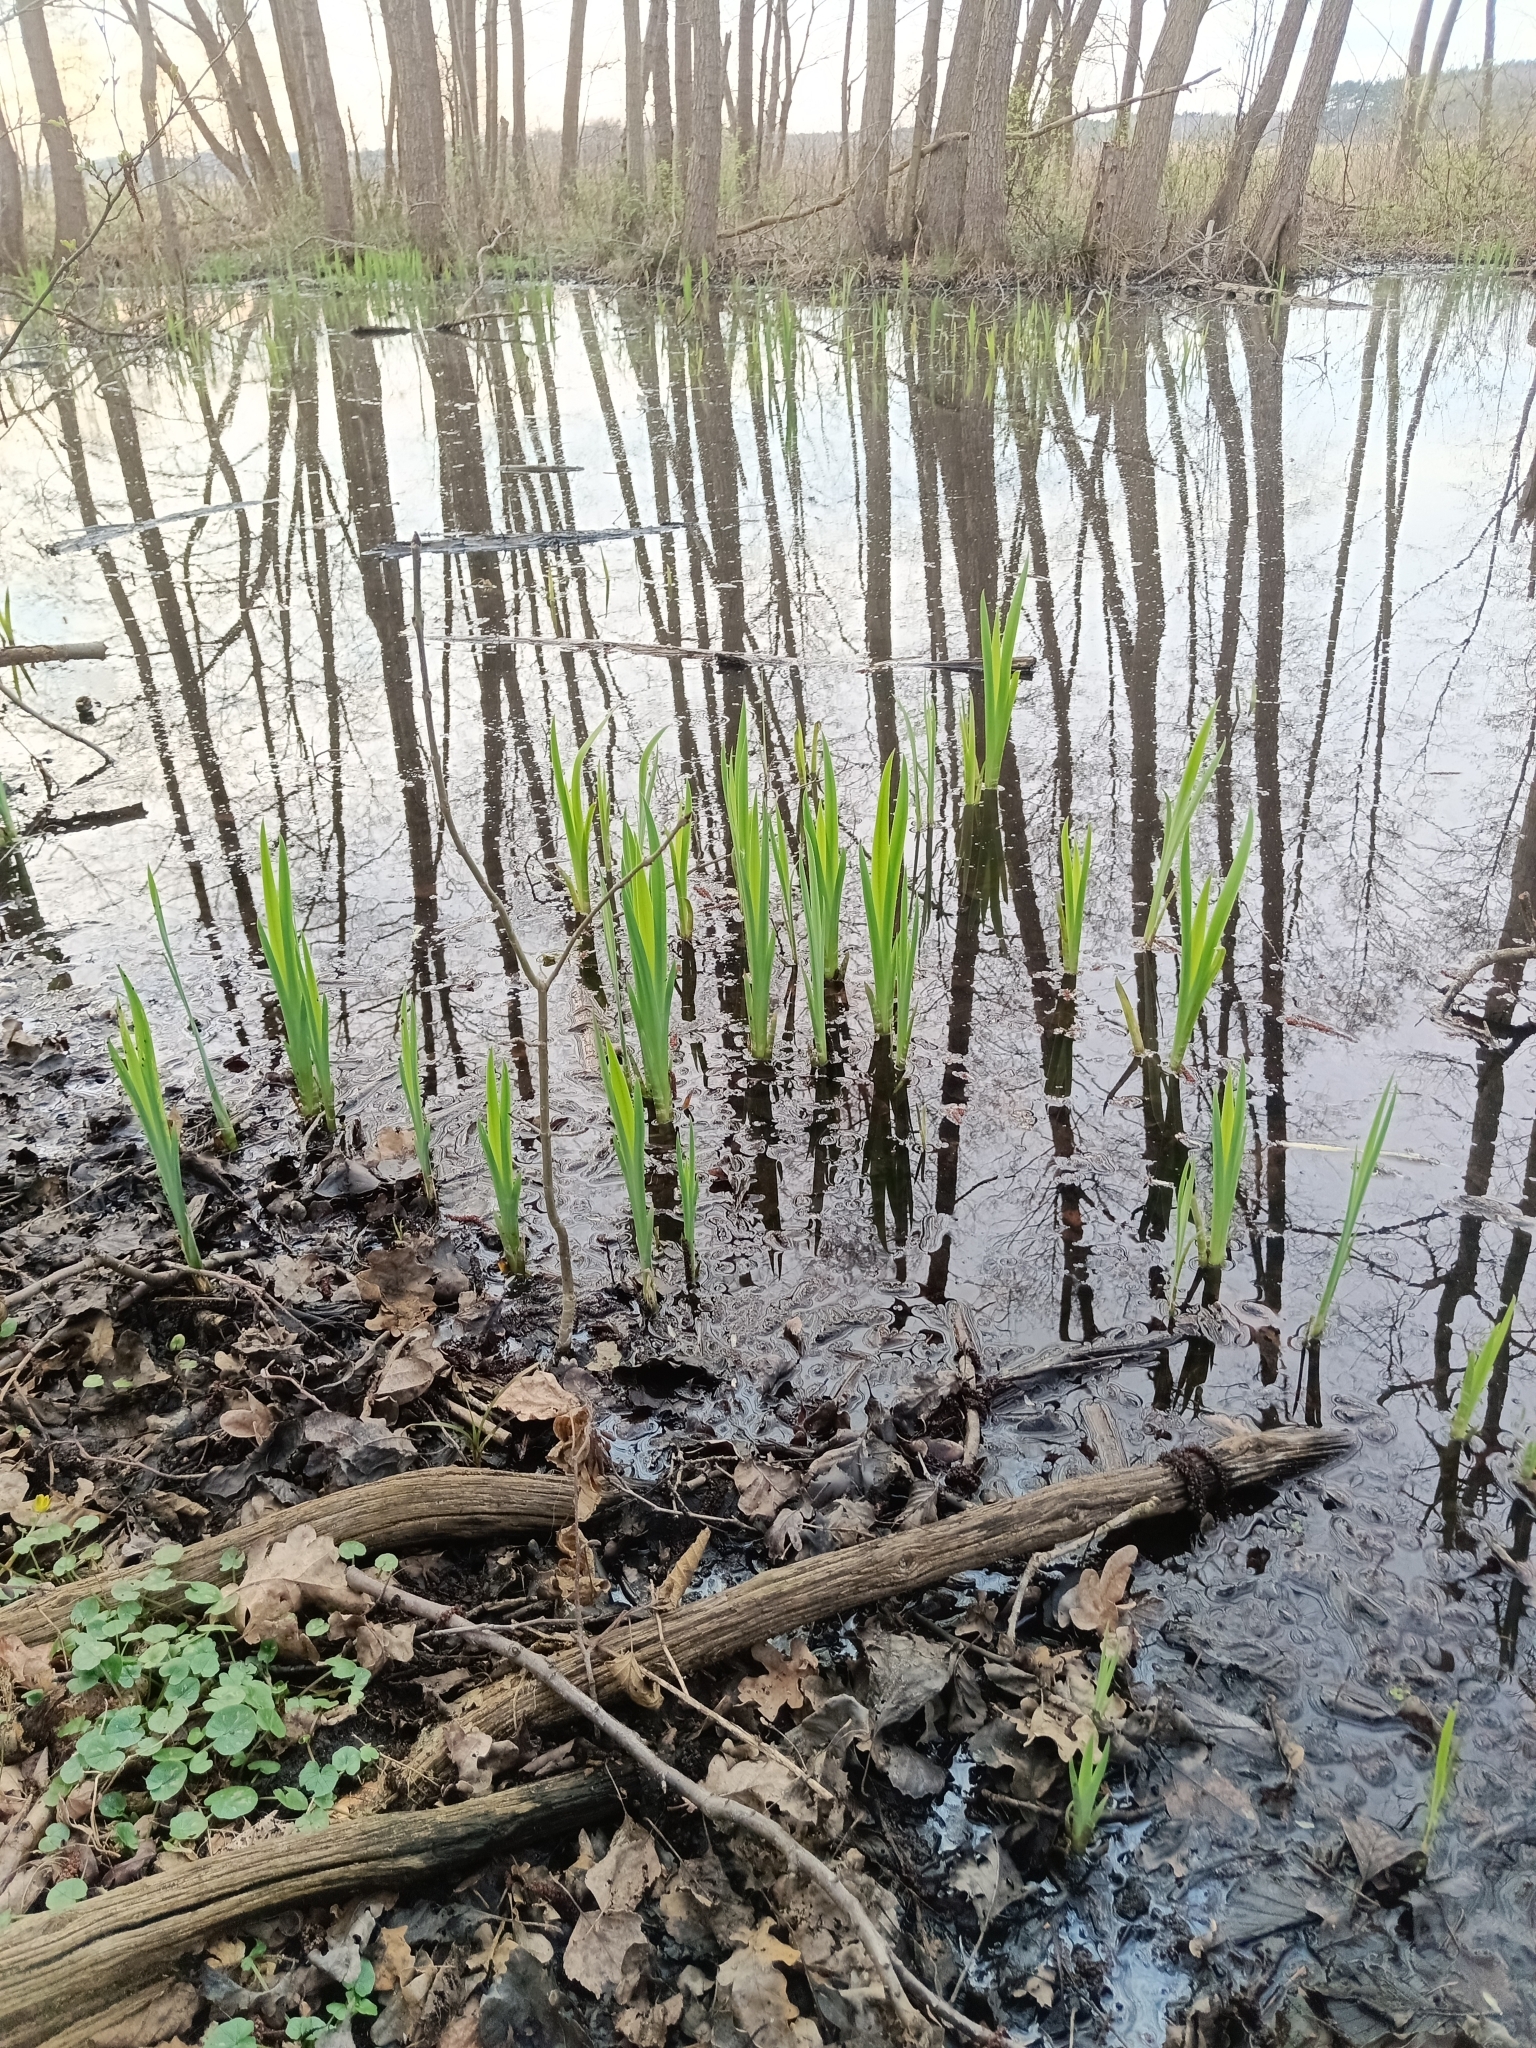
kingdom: Plantae
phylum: Tracheophyta
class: Liliopsida
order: Asparagales
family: Iridaceae
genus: Iris
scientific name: Iris pseudacorus
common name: Yellow flag
